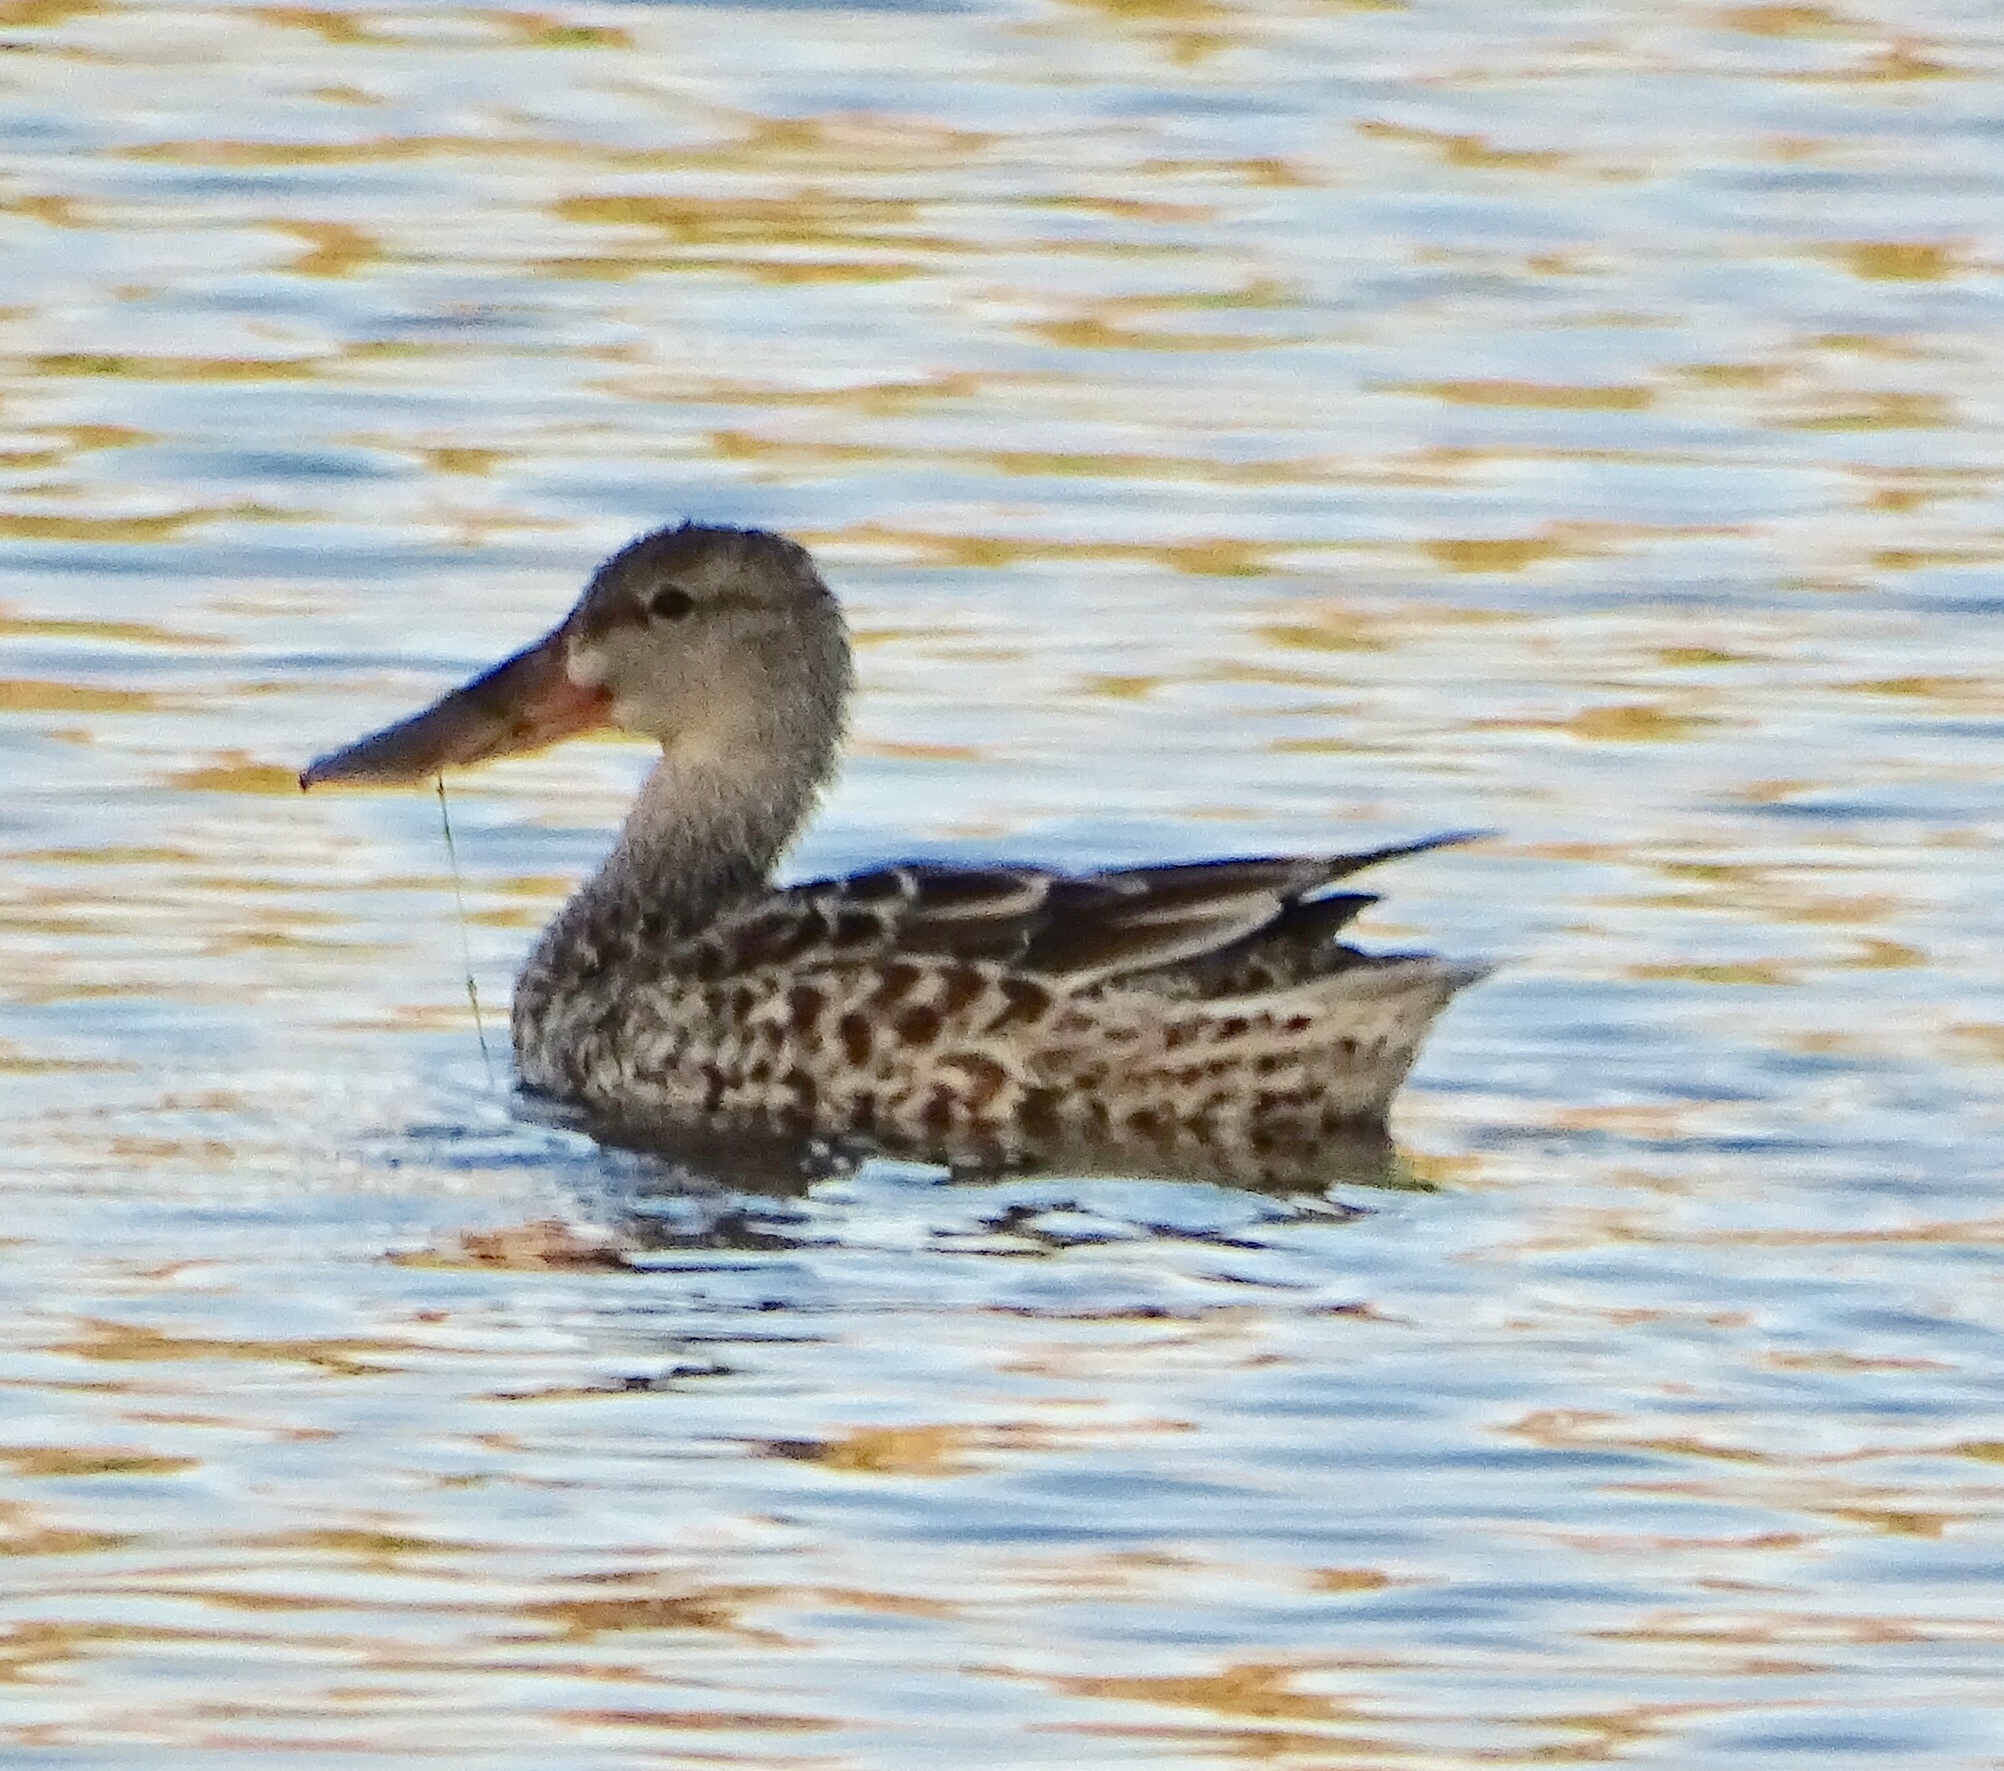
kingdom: Animalia
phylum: Chordata
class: Aves
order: Anseriformes
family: Anatidae
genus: Spatula
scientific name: Spatula clypeata
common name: Northern shoveler
